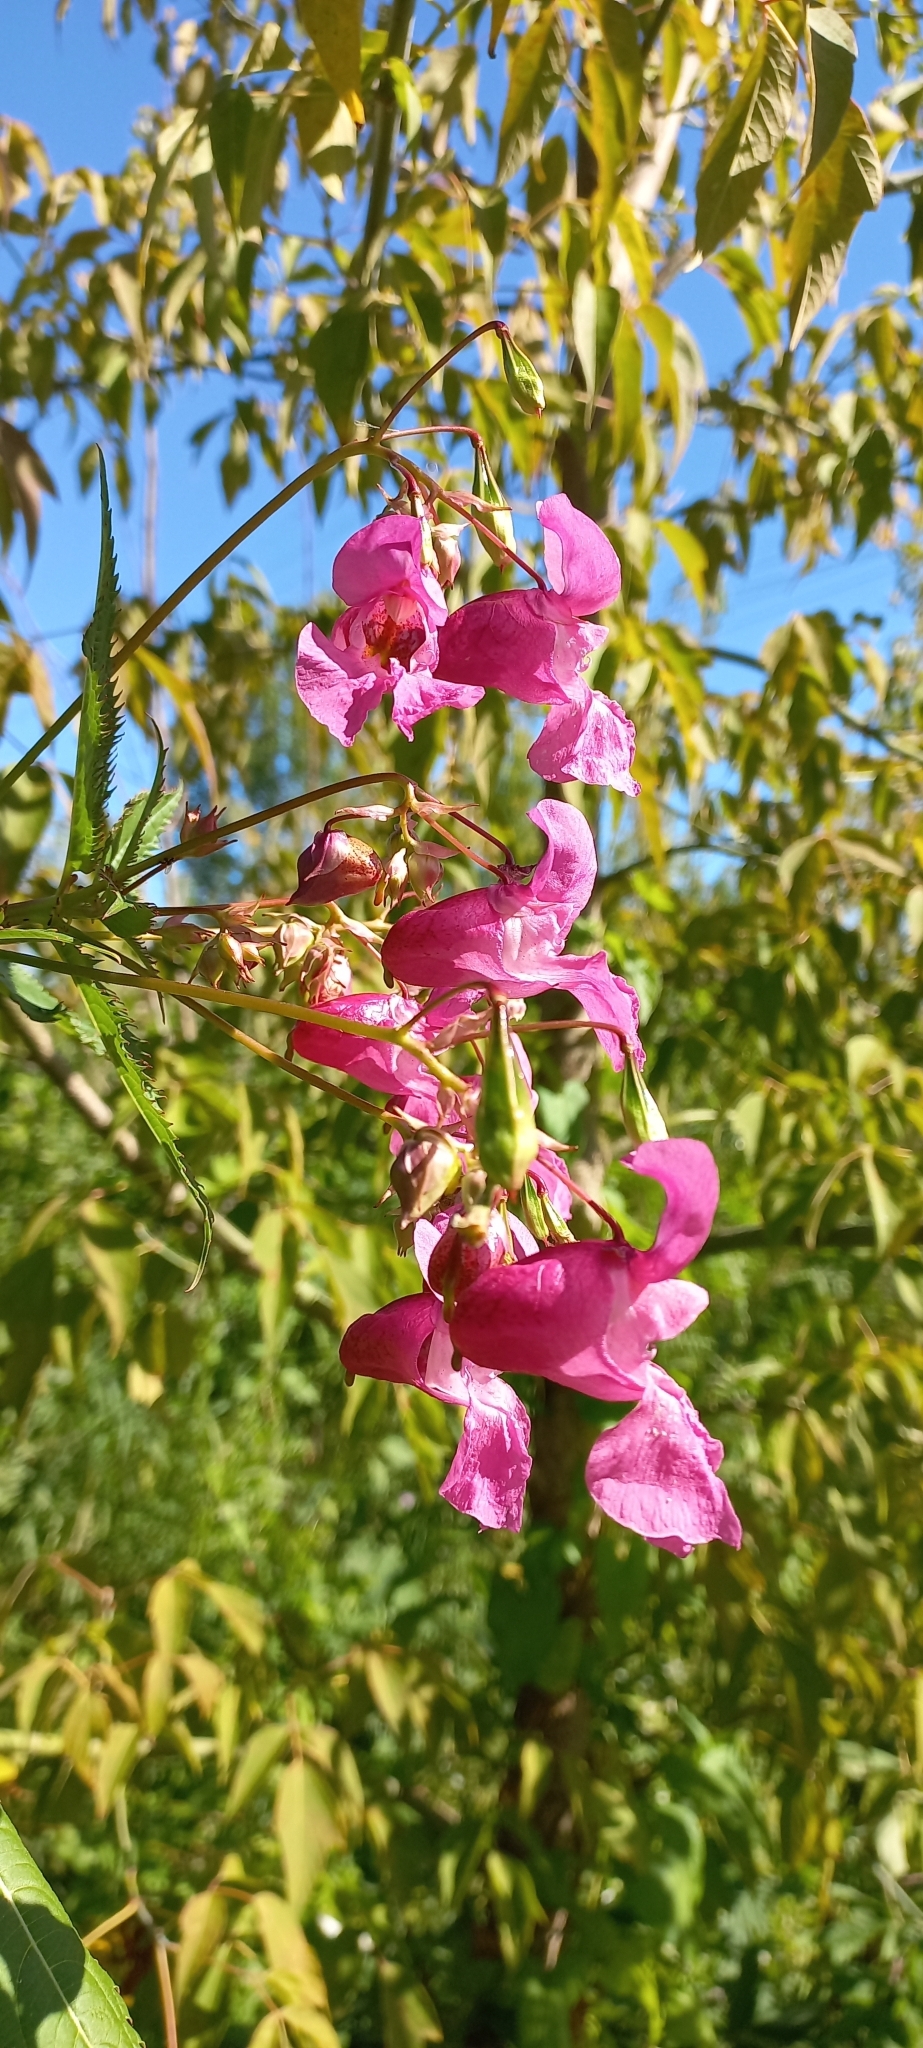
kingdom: Plantae
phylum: Tracheophyta
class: Magnoliopsida
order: Ericales
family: Balsaminaceae
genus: Impatiens
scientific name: Impatiens glandulifera
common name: Himalayan balsam
